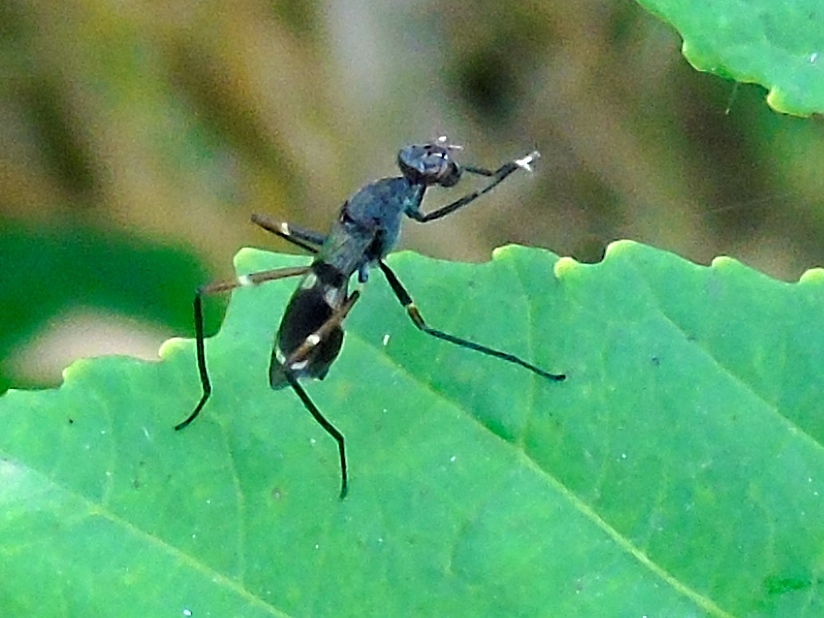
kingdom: Animalia
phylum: Arthropoda
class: Insecta
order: Diptera
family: Micropezidae
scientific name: Micropezidae
